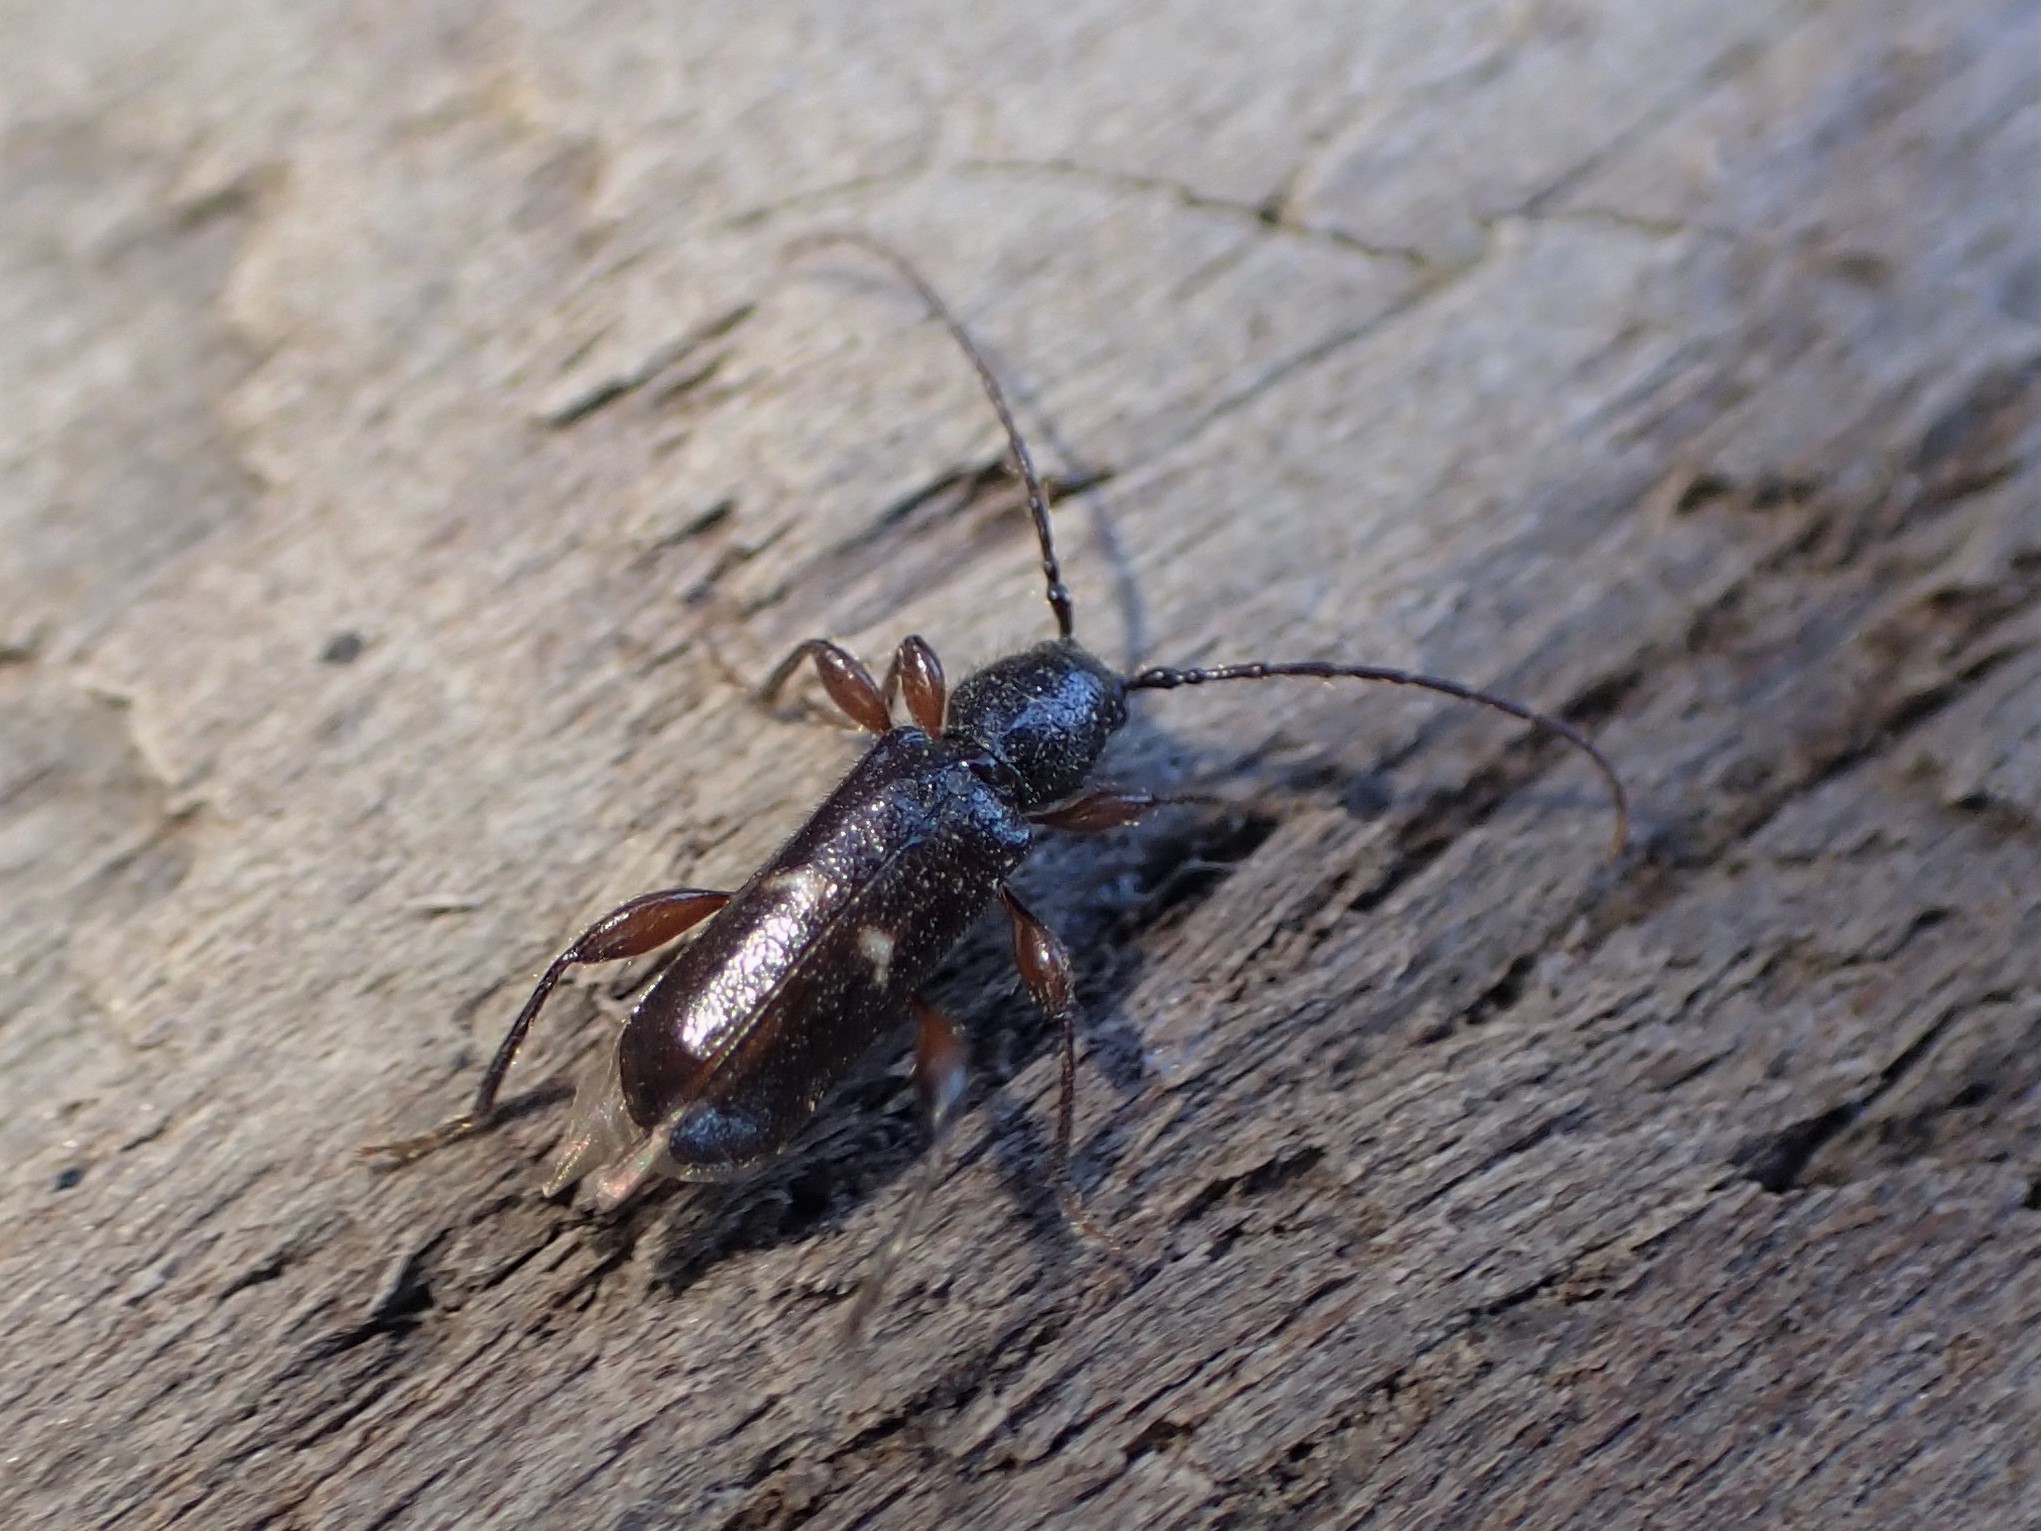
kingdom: Animalia
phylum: Arthropoda
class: Insecta
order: Coleoptera
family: Cerambycidae
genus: Phymatodes
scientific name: Phymatodes vulneratus
